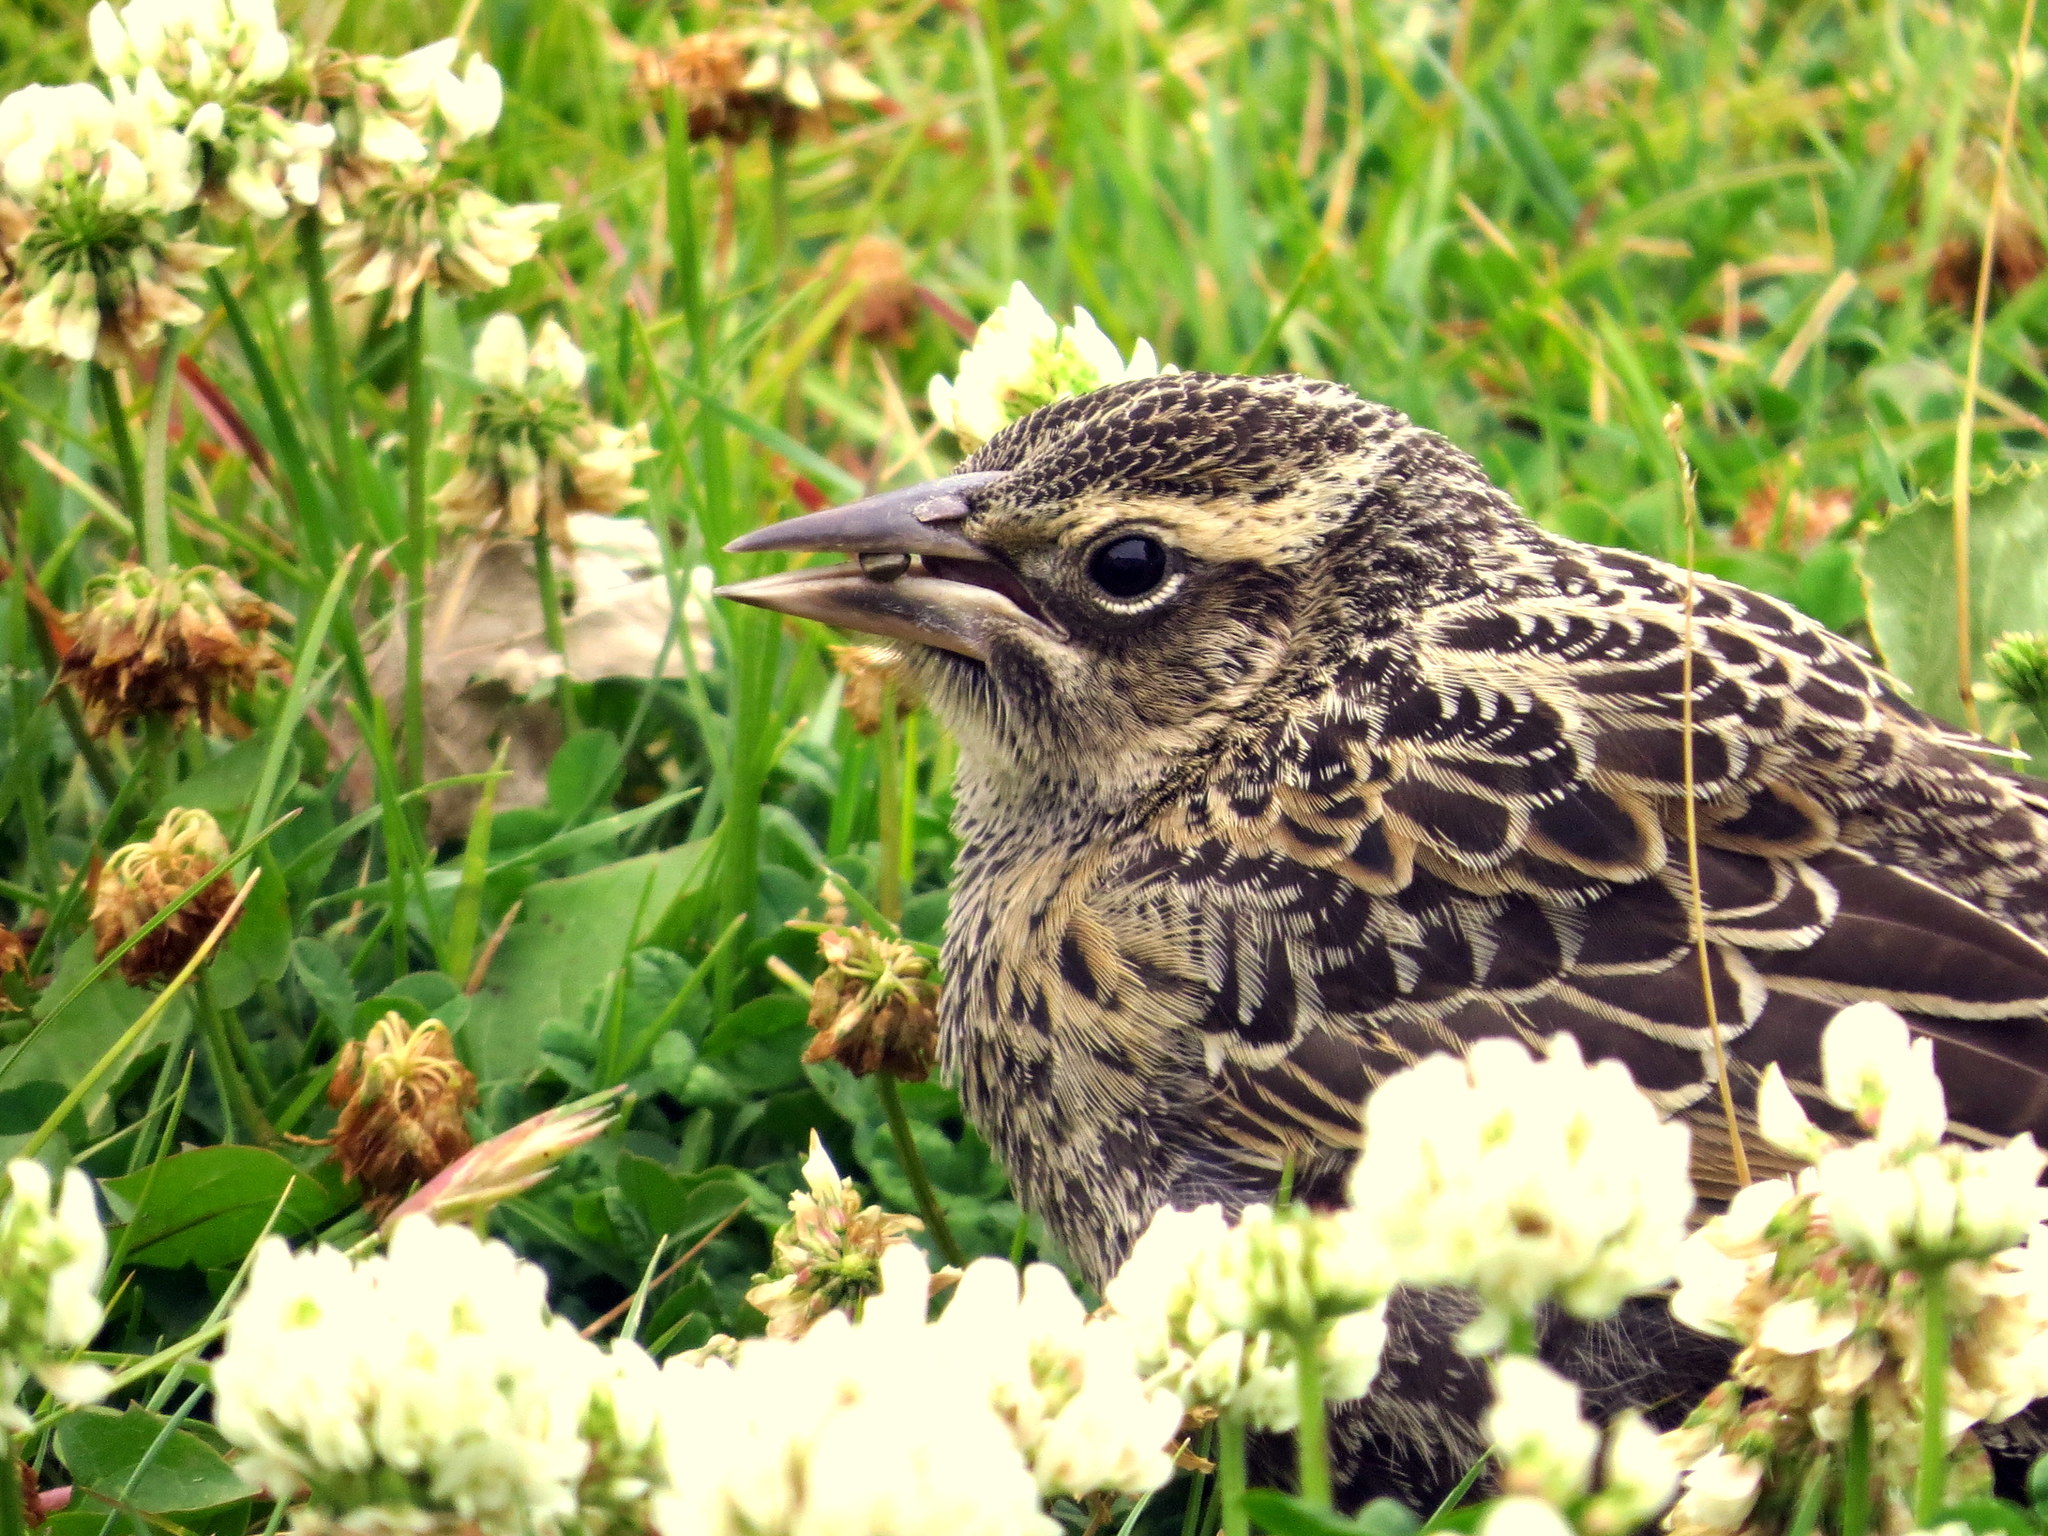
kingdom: Animalia
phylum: Chordata
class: Aves
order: Passeriformes
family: Icteridae
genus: Sturnella
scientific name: Sturnella loyca
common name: Long-tailed meadowlark
